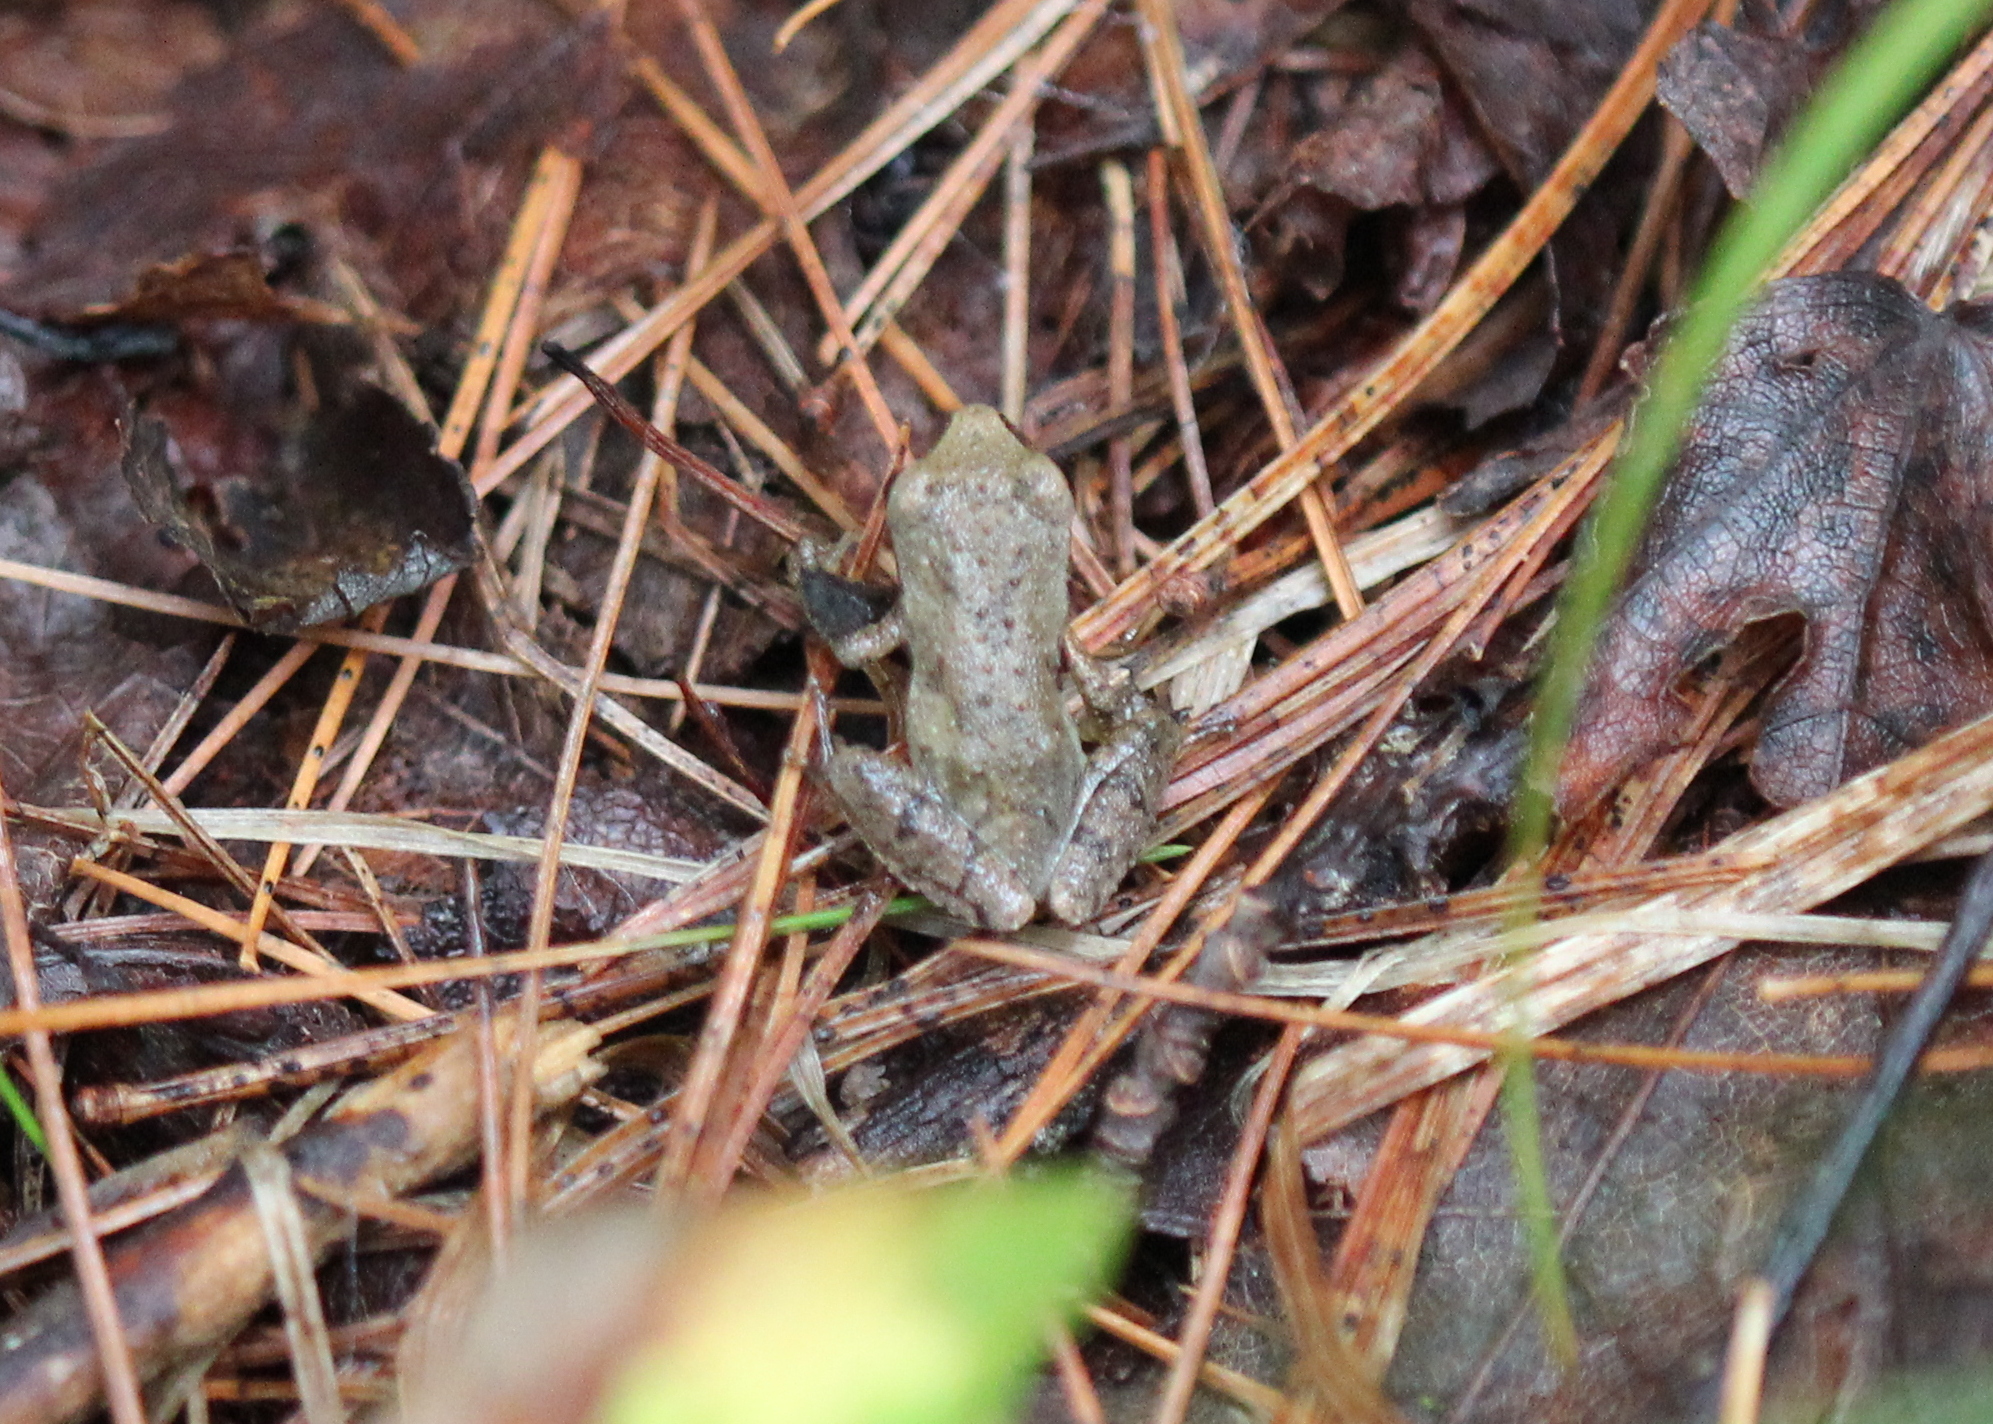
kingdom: Animalia
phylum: Chordata
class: Amphibia
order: Anura
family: Hylidae
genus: Pseudacris
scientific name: Pseudacris crucifer
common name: Spring peeper
